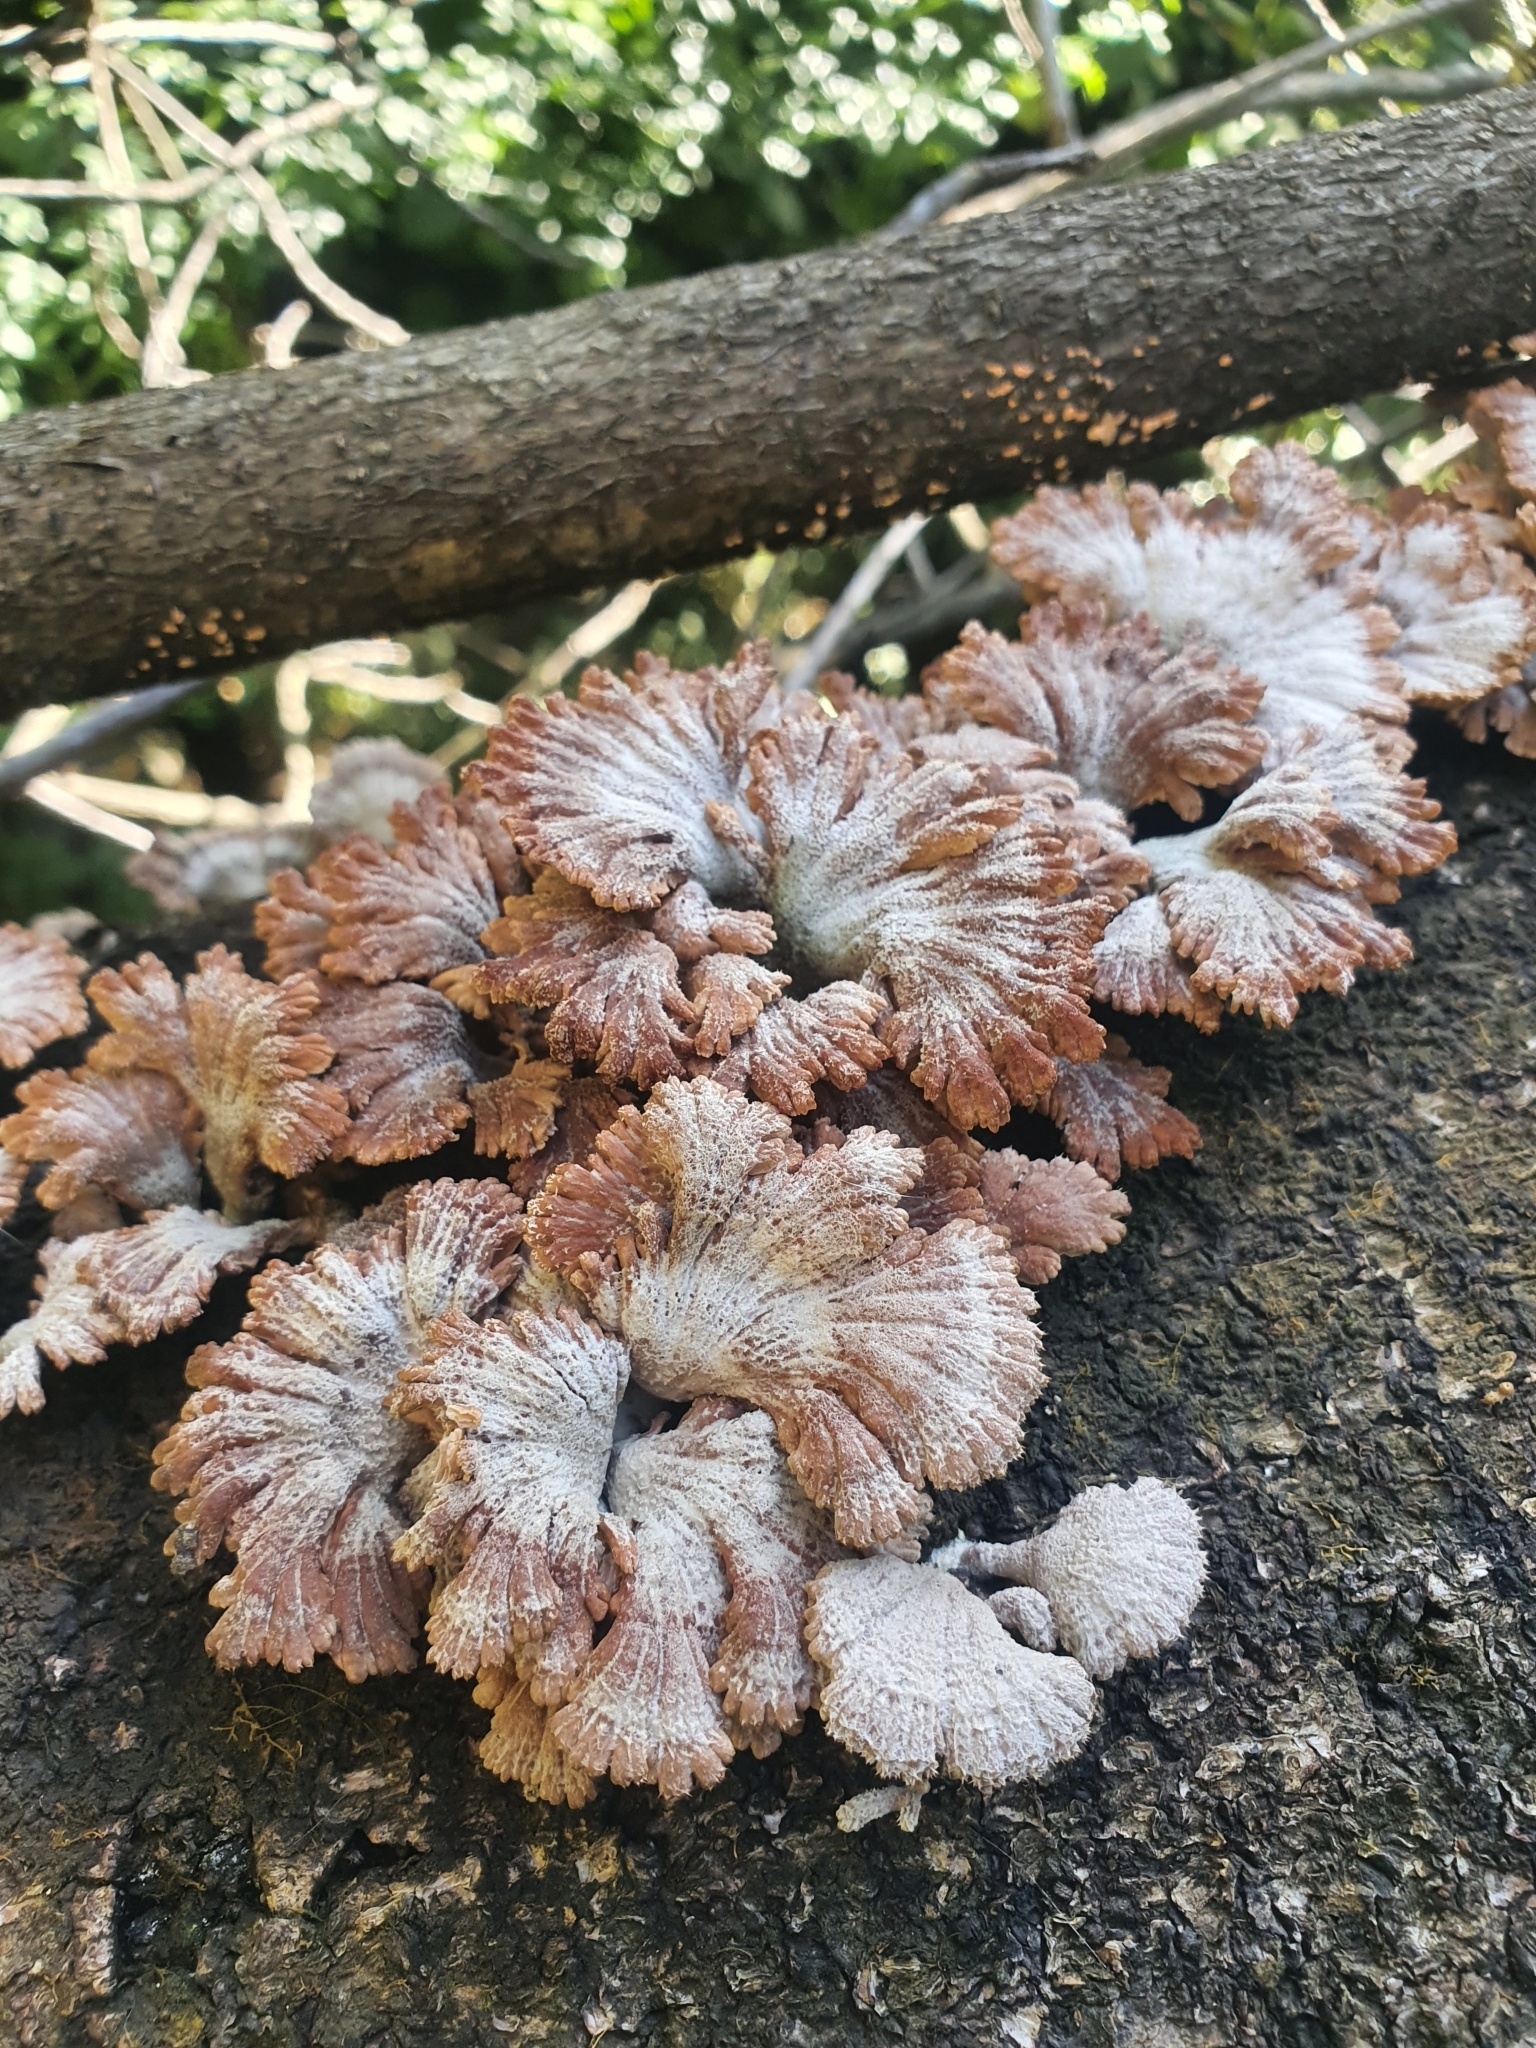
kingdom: Fungi
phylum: Basidiomycota
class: Agaricomycetes
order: Agaricales
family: Schizophyllaceae
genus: Schizophyllum
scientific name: Schizophyllum commune
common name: Common porecrust
